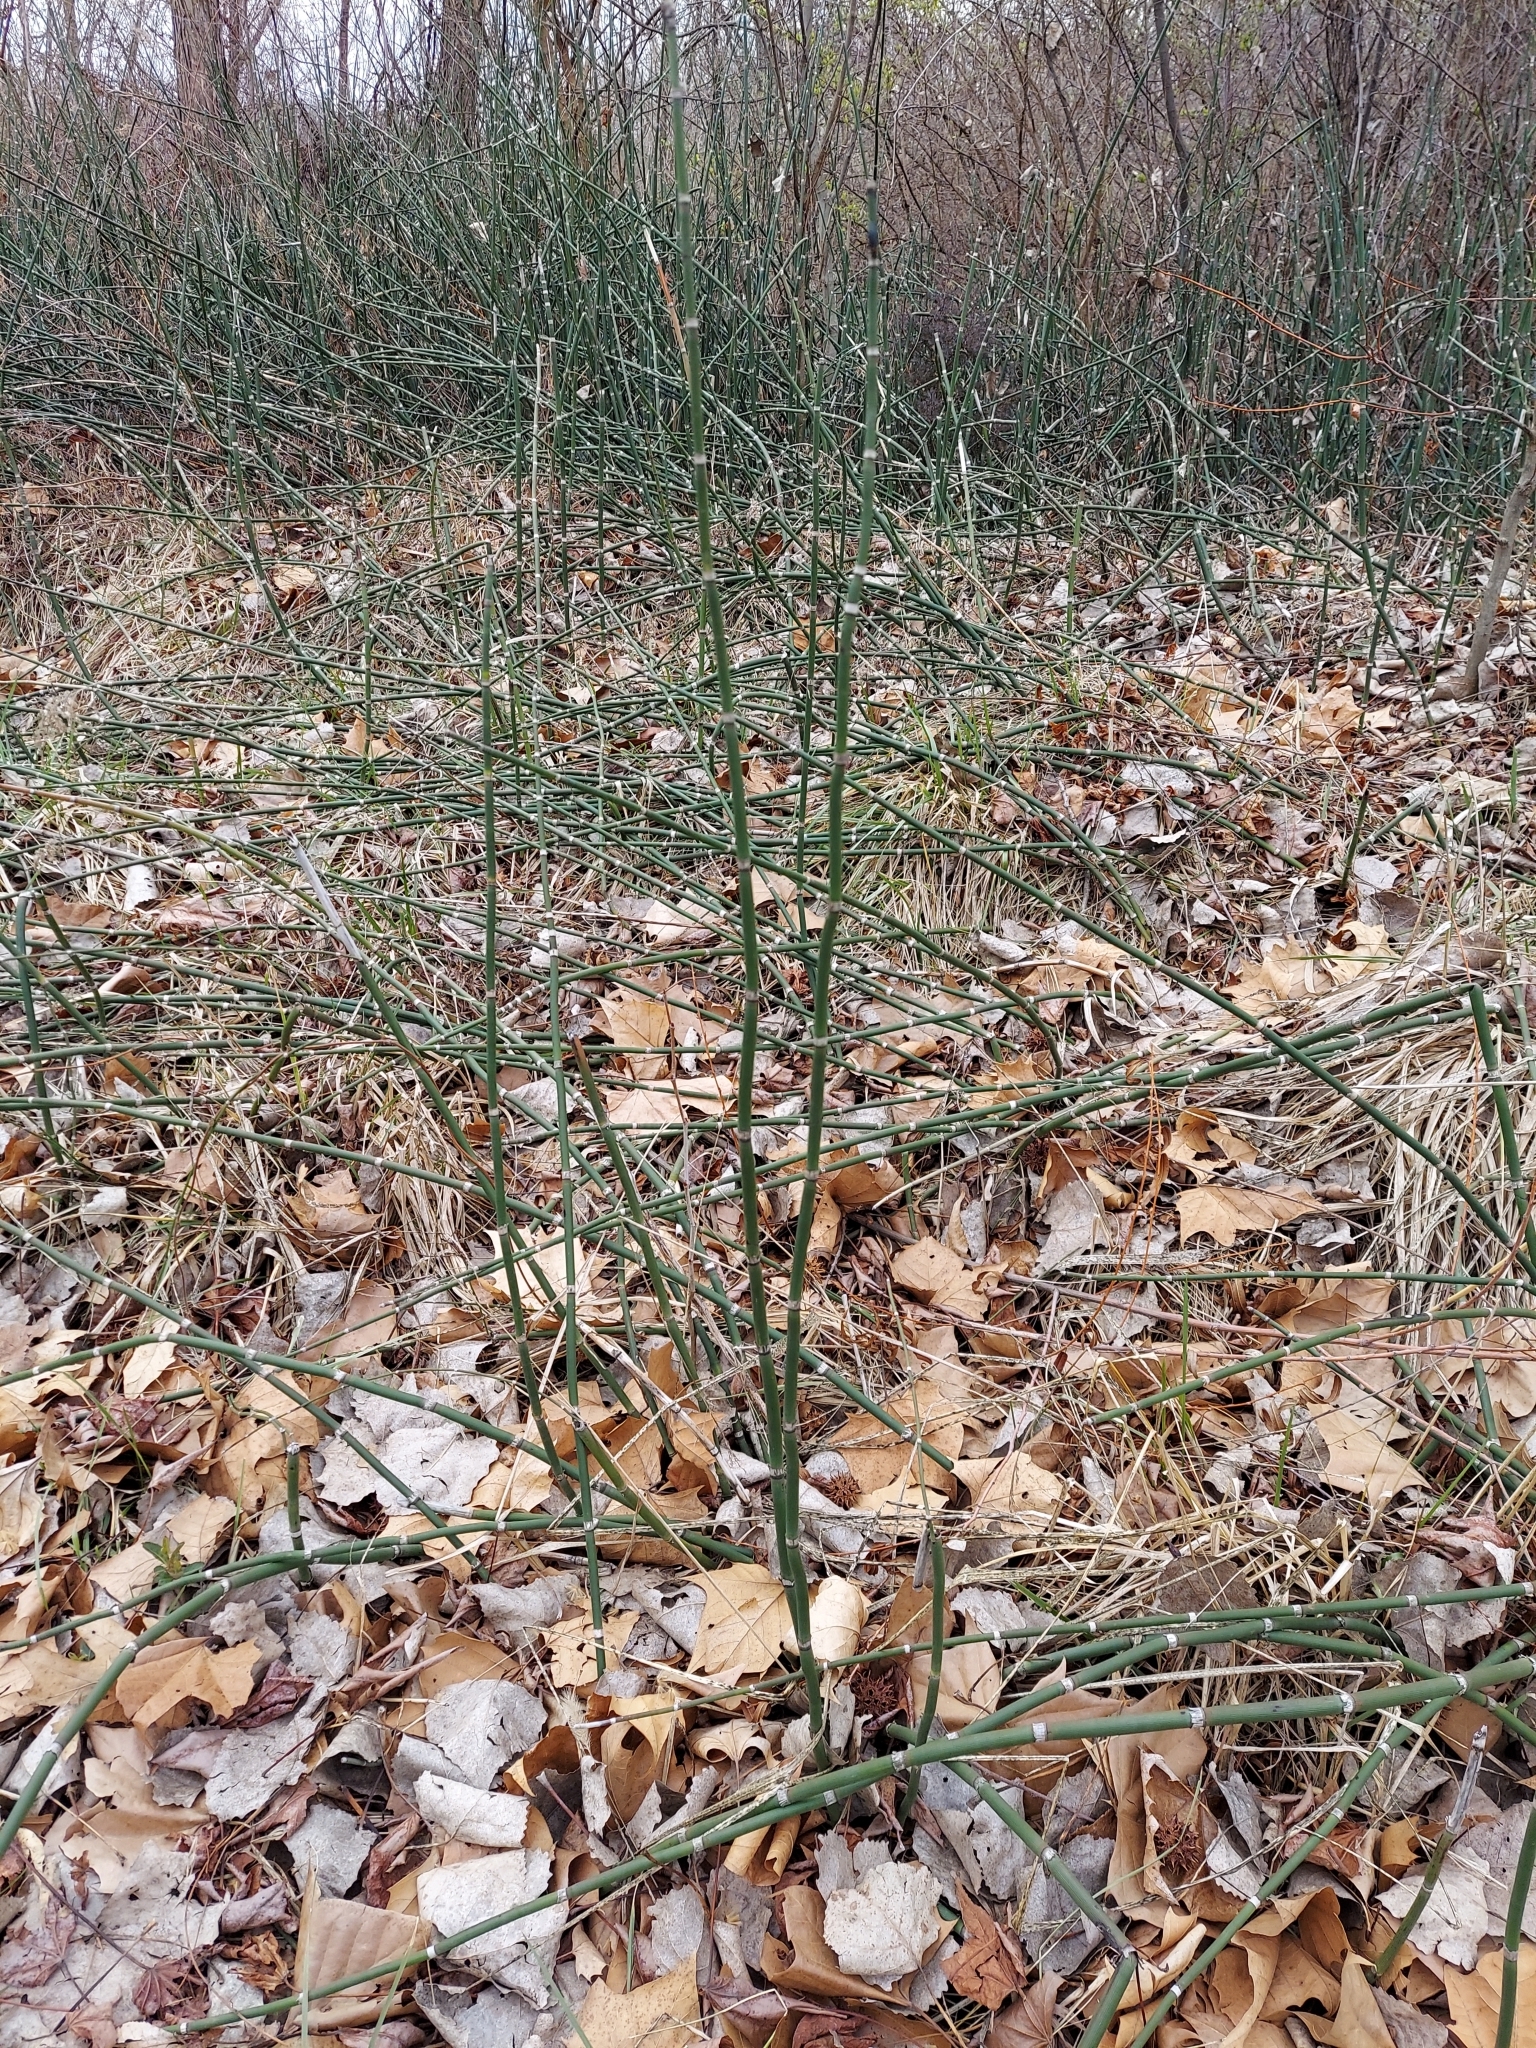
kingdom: Plantae
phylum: Tracheophyta
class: Polypodiopsida
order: Equisetales
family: Equisetaceae
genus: Equisetum
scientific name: Equisetum hyemale
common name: Rough horsetail
